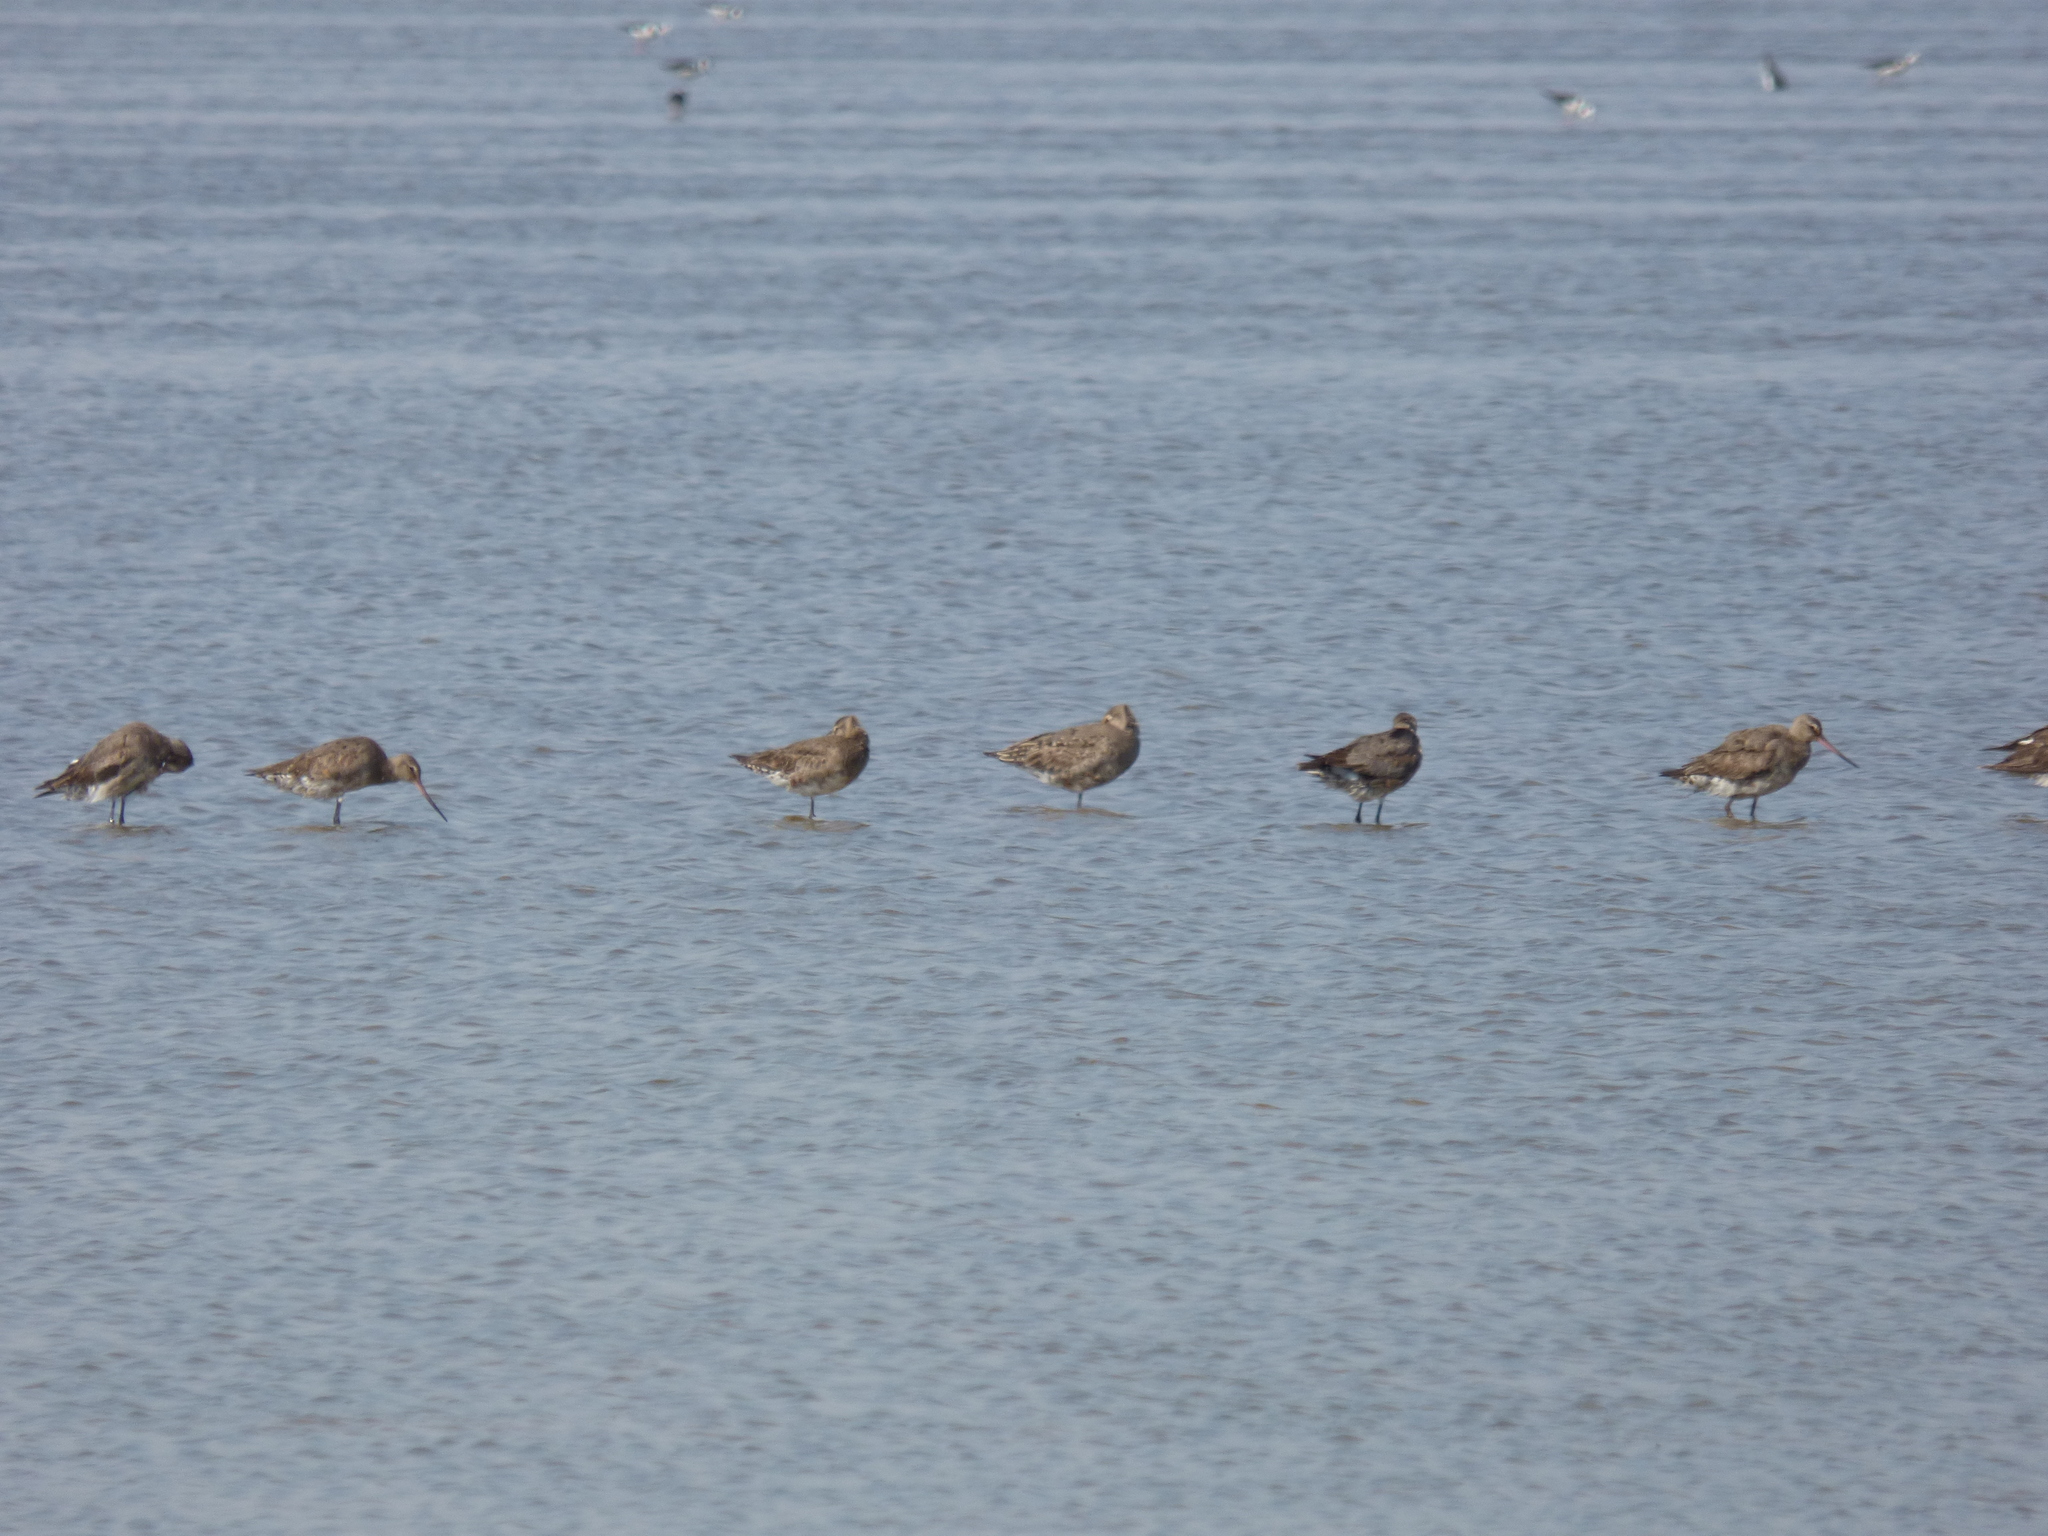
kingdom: Animalia
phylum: Chordata
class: Aves
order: Charadriiformes
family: Scolopacidae
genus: Limosa
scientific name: Limosa haemastica
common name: Hudsonian godwit
